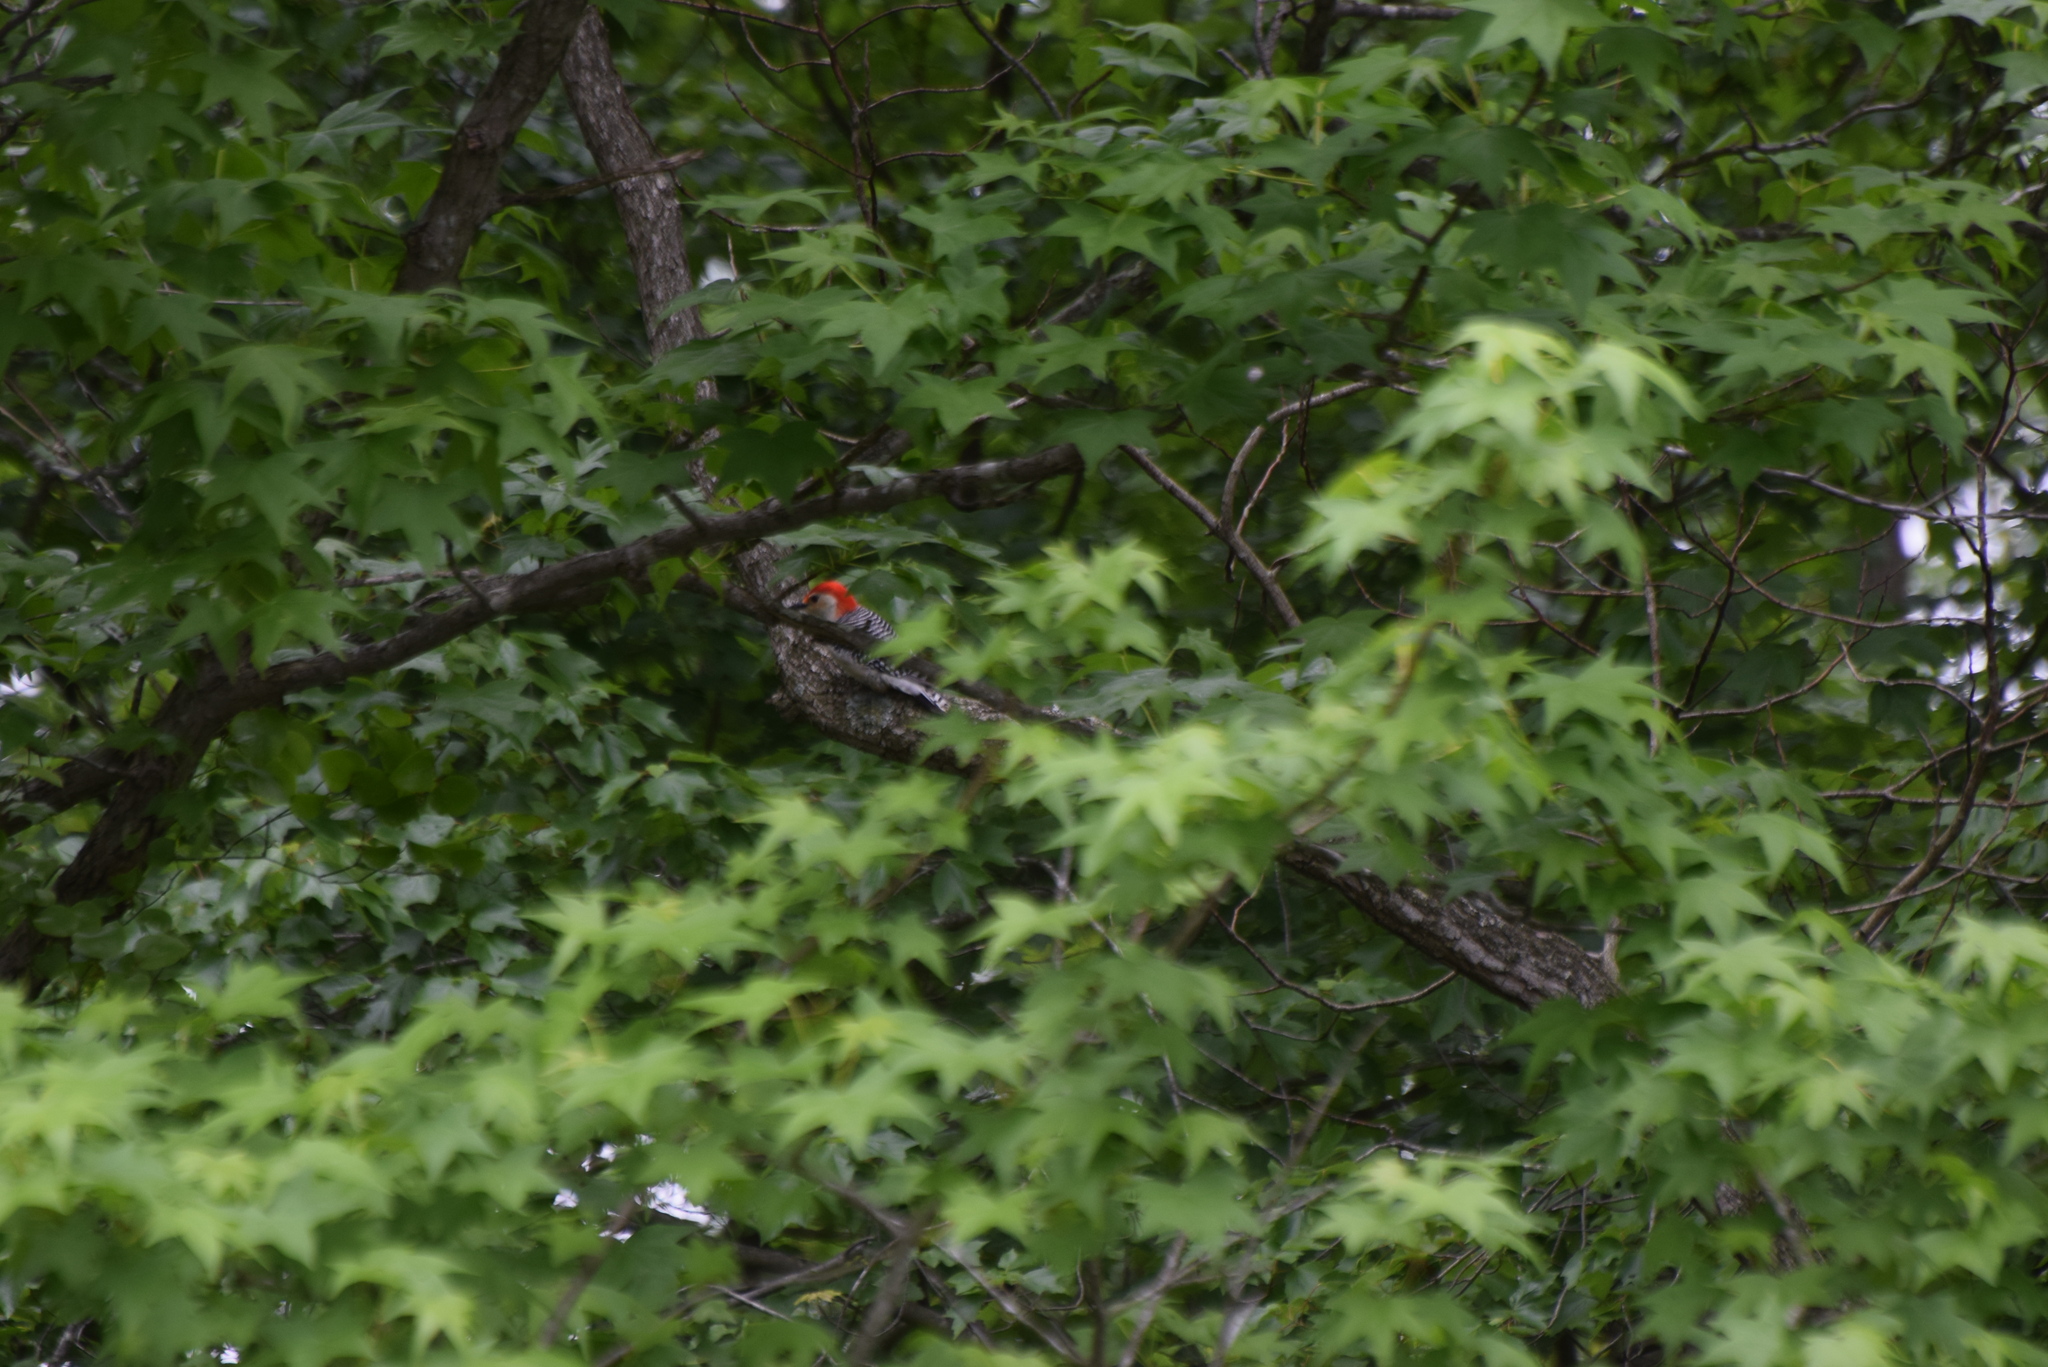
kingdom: Animalia
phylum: Chordata
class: Aves
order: Piciformes
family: Picidae
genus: Melanerpes
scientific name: Melanerpes carolinus
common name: Red-bellied woodpecker
